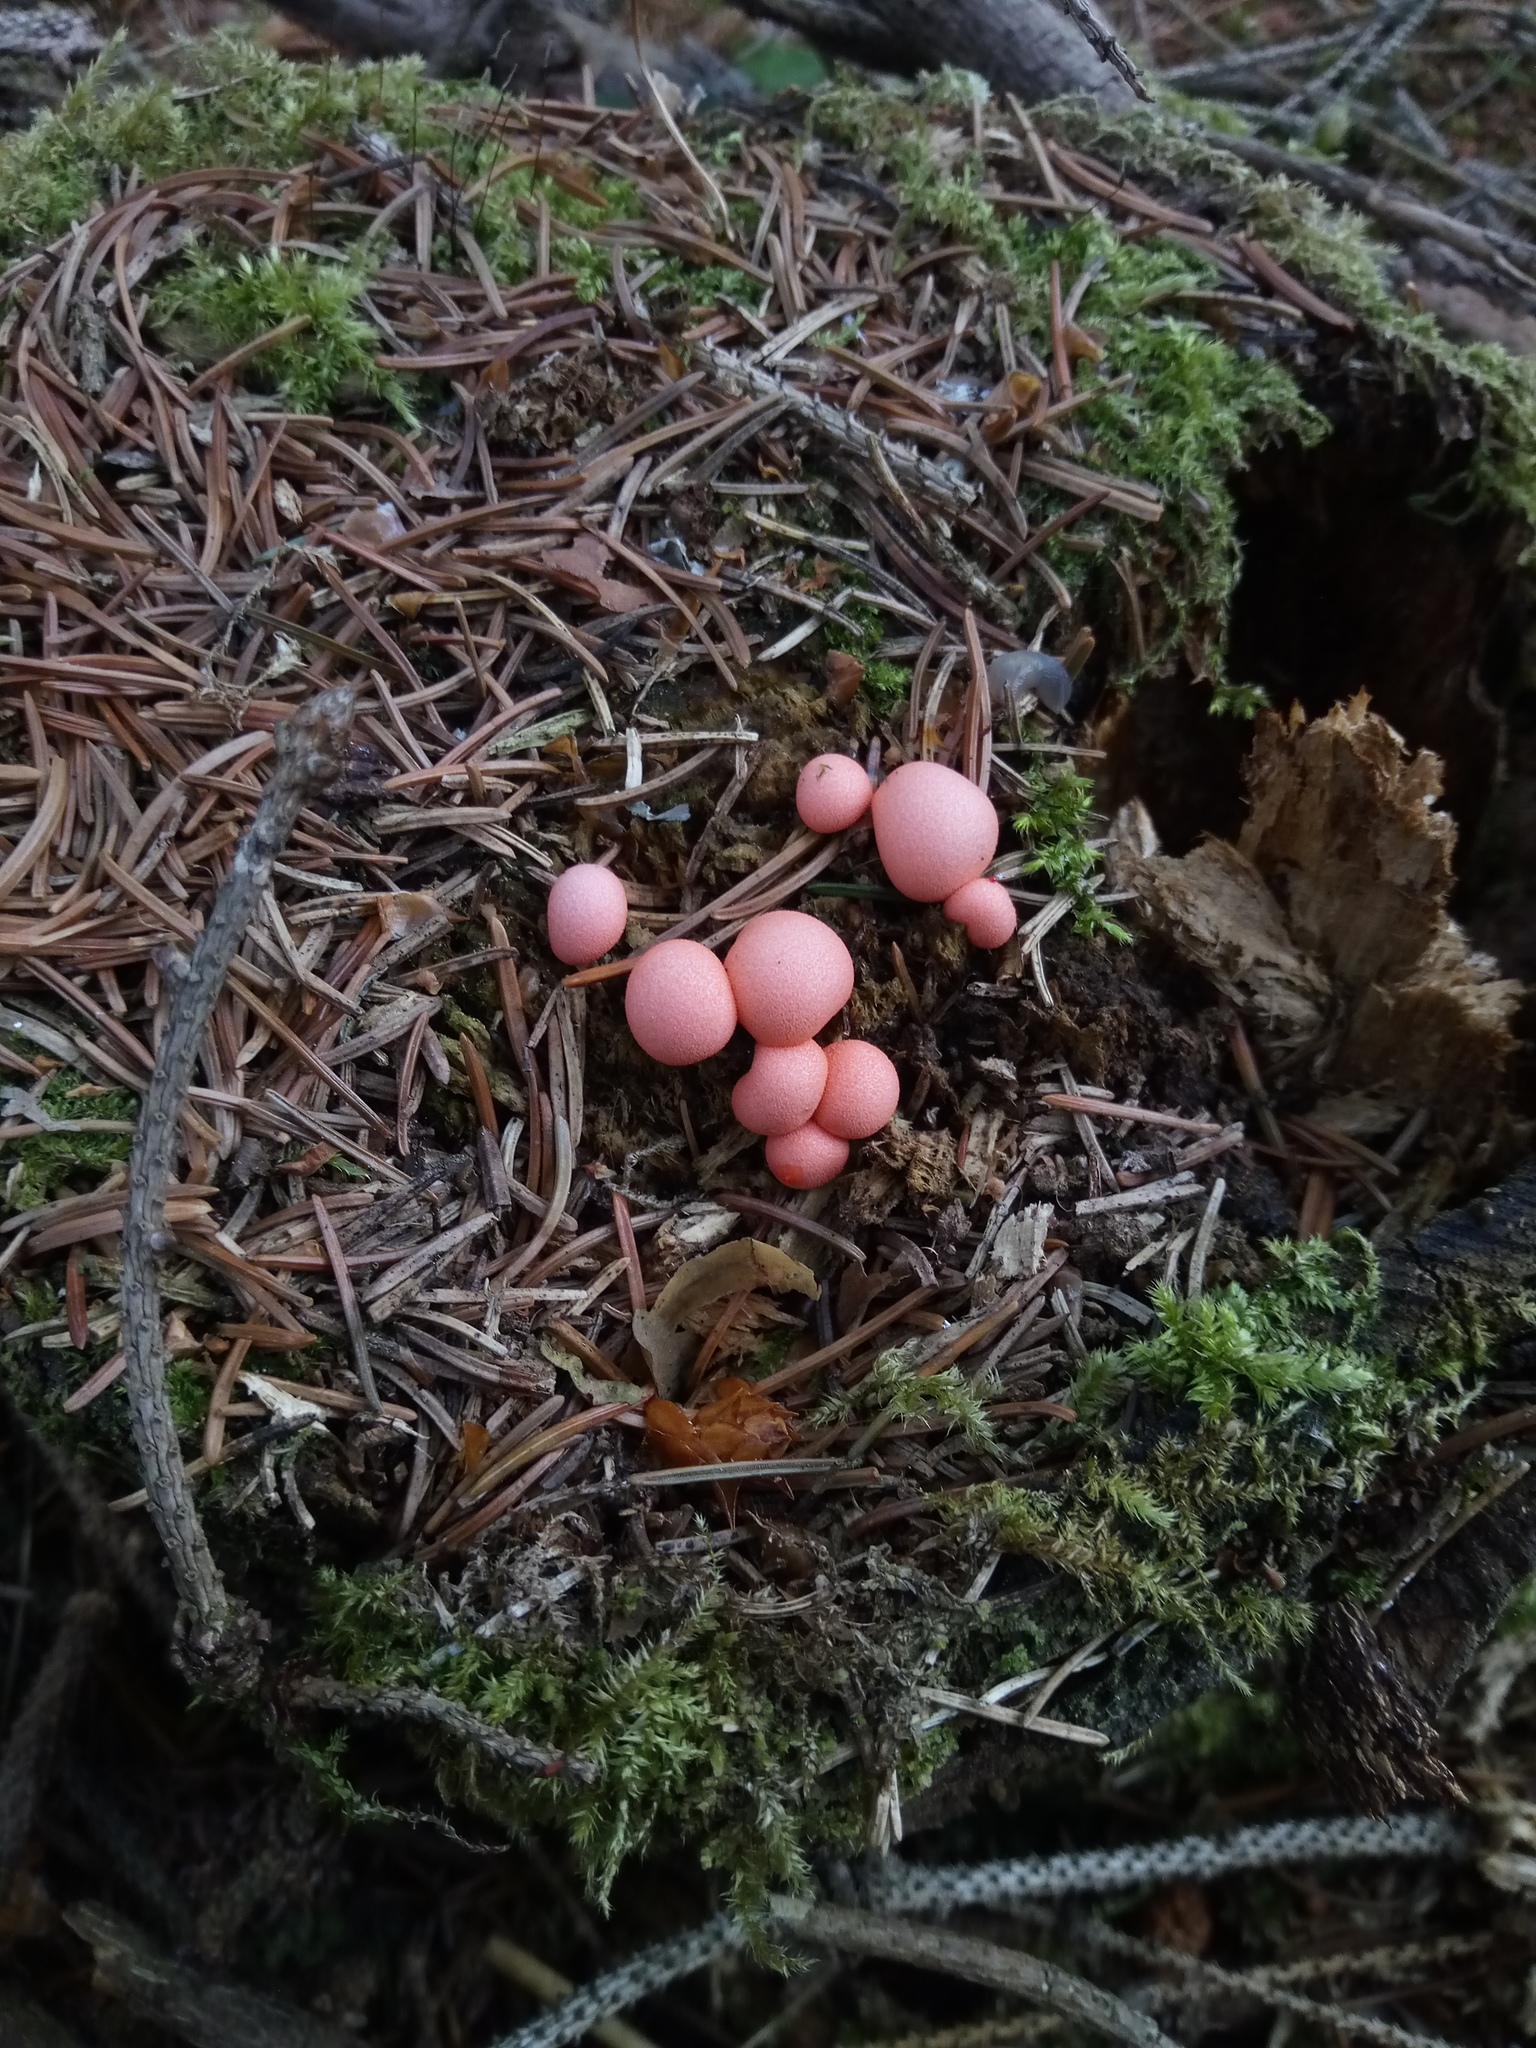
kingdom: Protozoa
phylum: Mycetozoa
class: Myxomycetes
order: Cribrariales
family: Tubiferaceae
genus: Lycogala
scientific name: Lycogala epidendrum
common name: Wolf's milk
